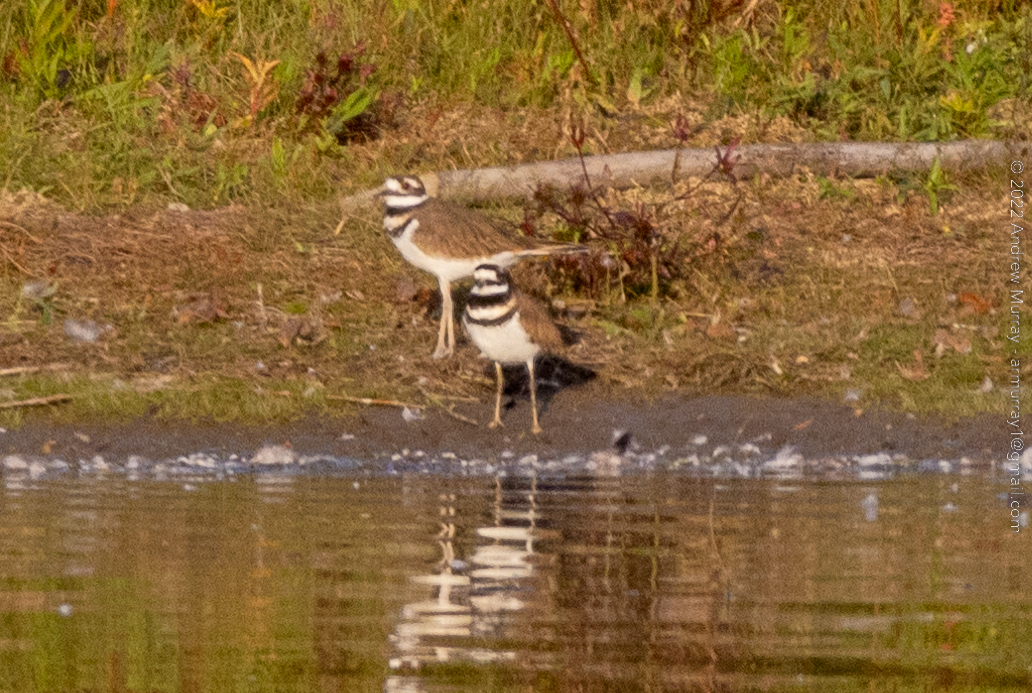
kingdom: Animalia
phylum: Chordata
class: Aves
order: Charadriiformes
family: Charadriidae
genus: Charadrius
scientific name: Charadrius vociferus
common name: Killdeer
